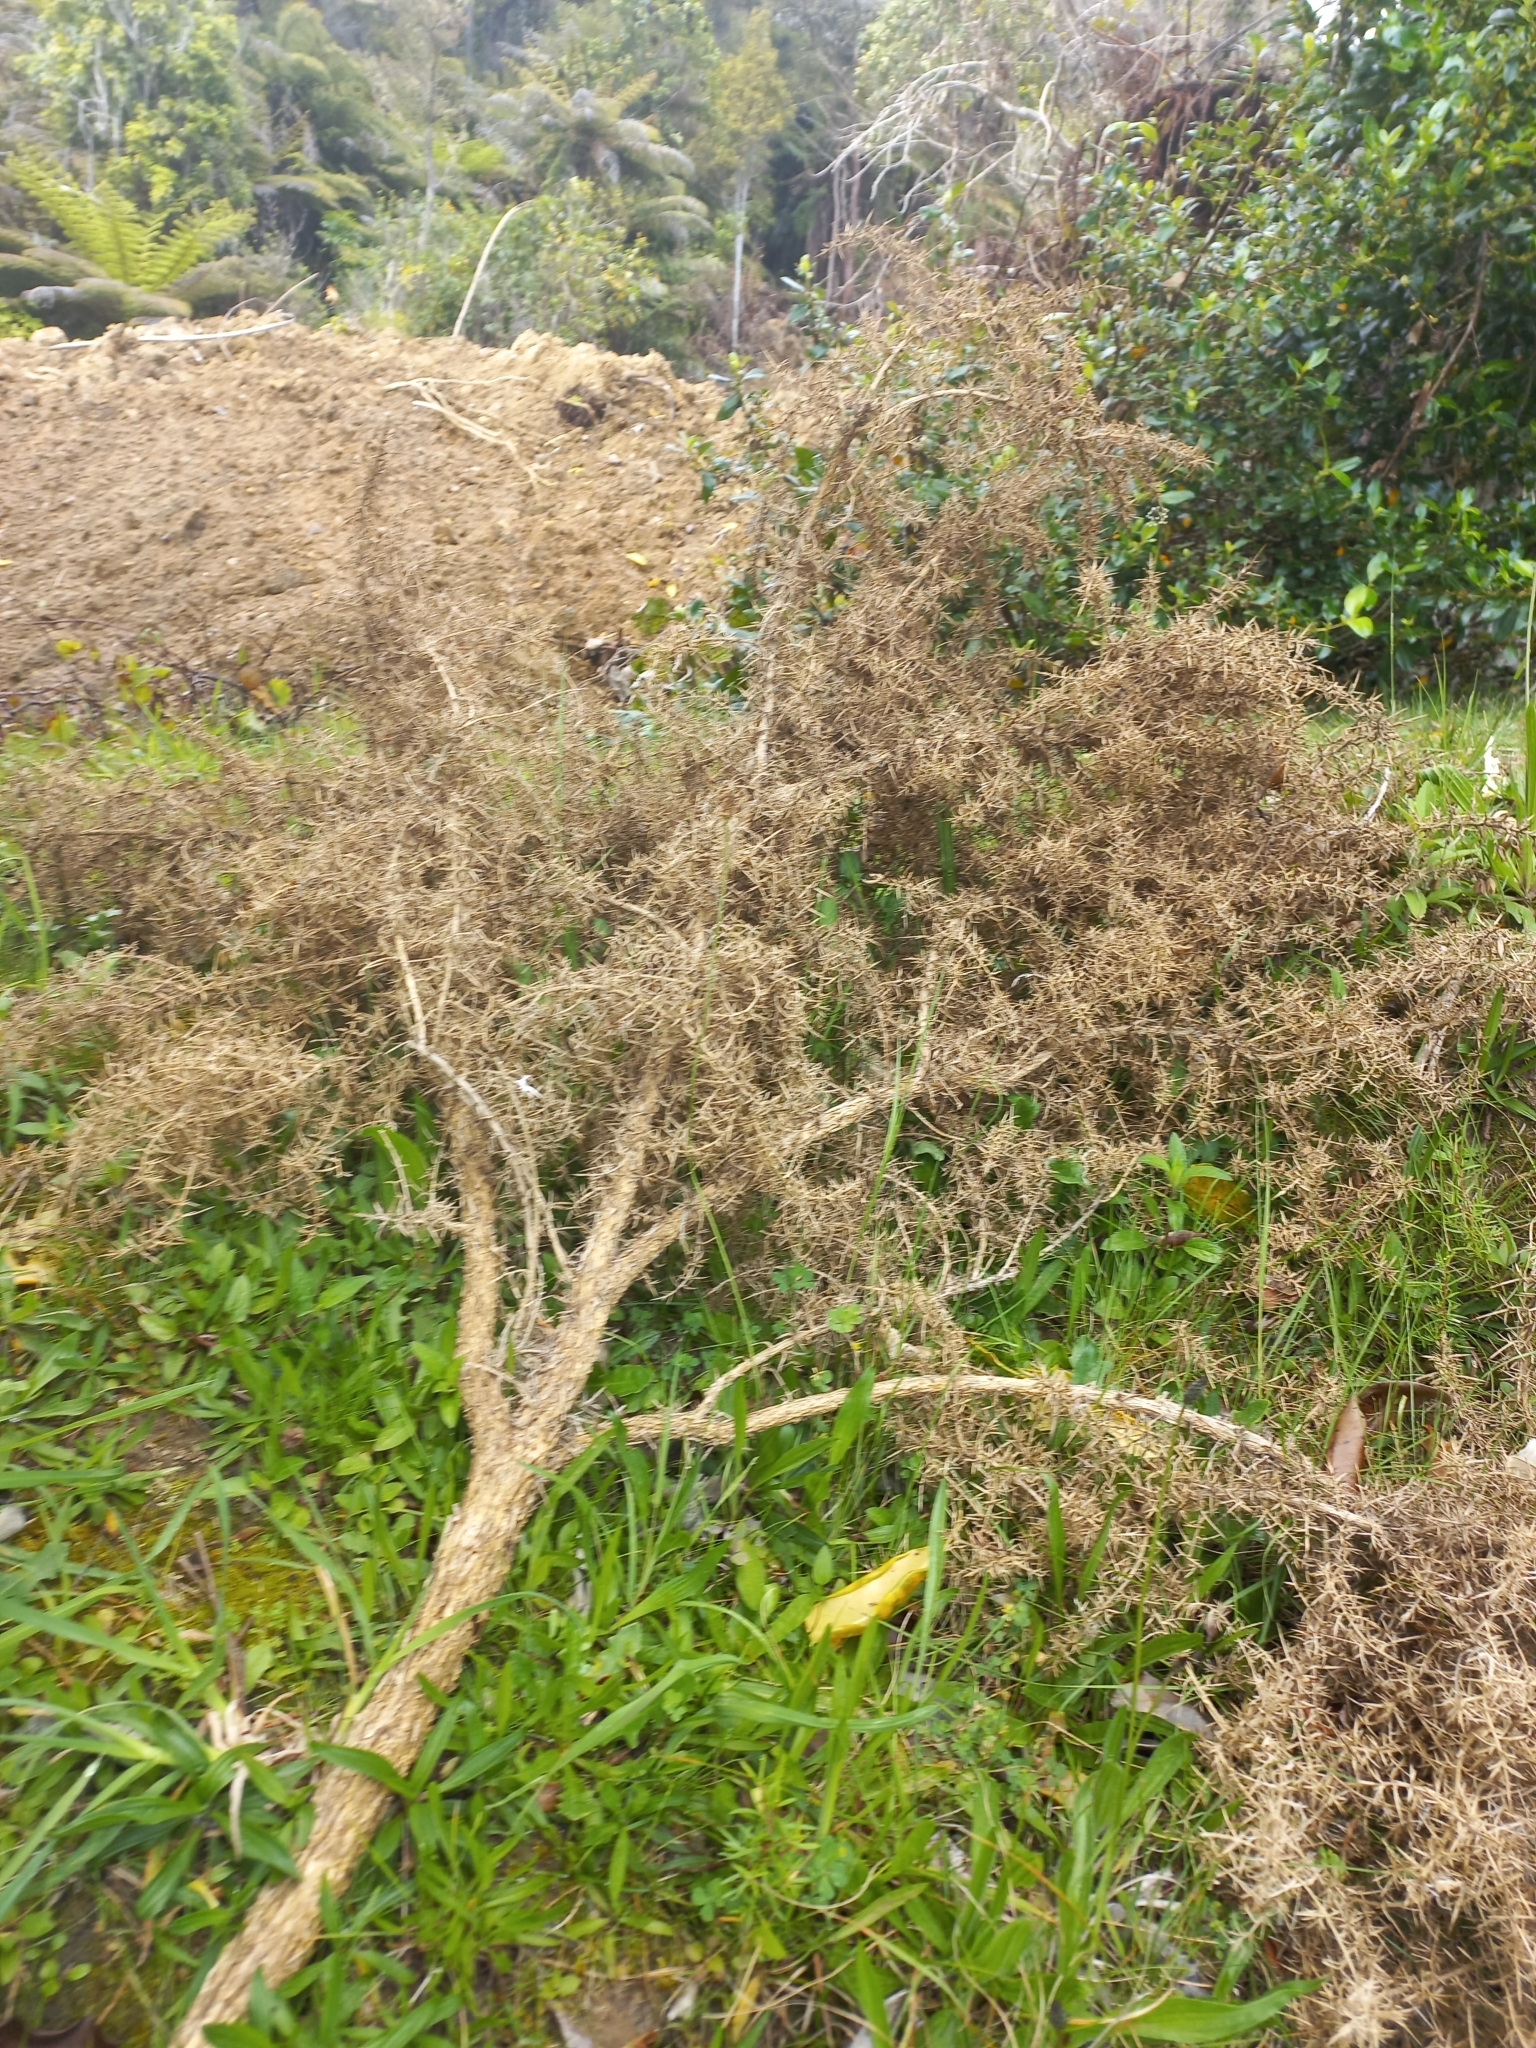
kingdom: Plantae
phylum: Tracheophyta
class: Magnoliopsida
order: Fabales
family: Fabaceae
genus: Ulex
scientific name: Ulex europaeus
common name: Common gorse
